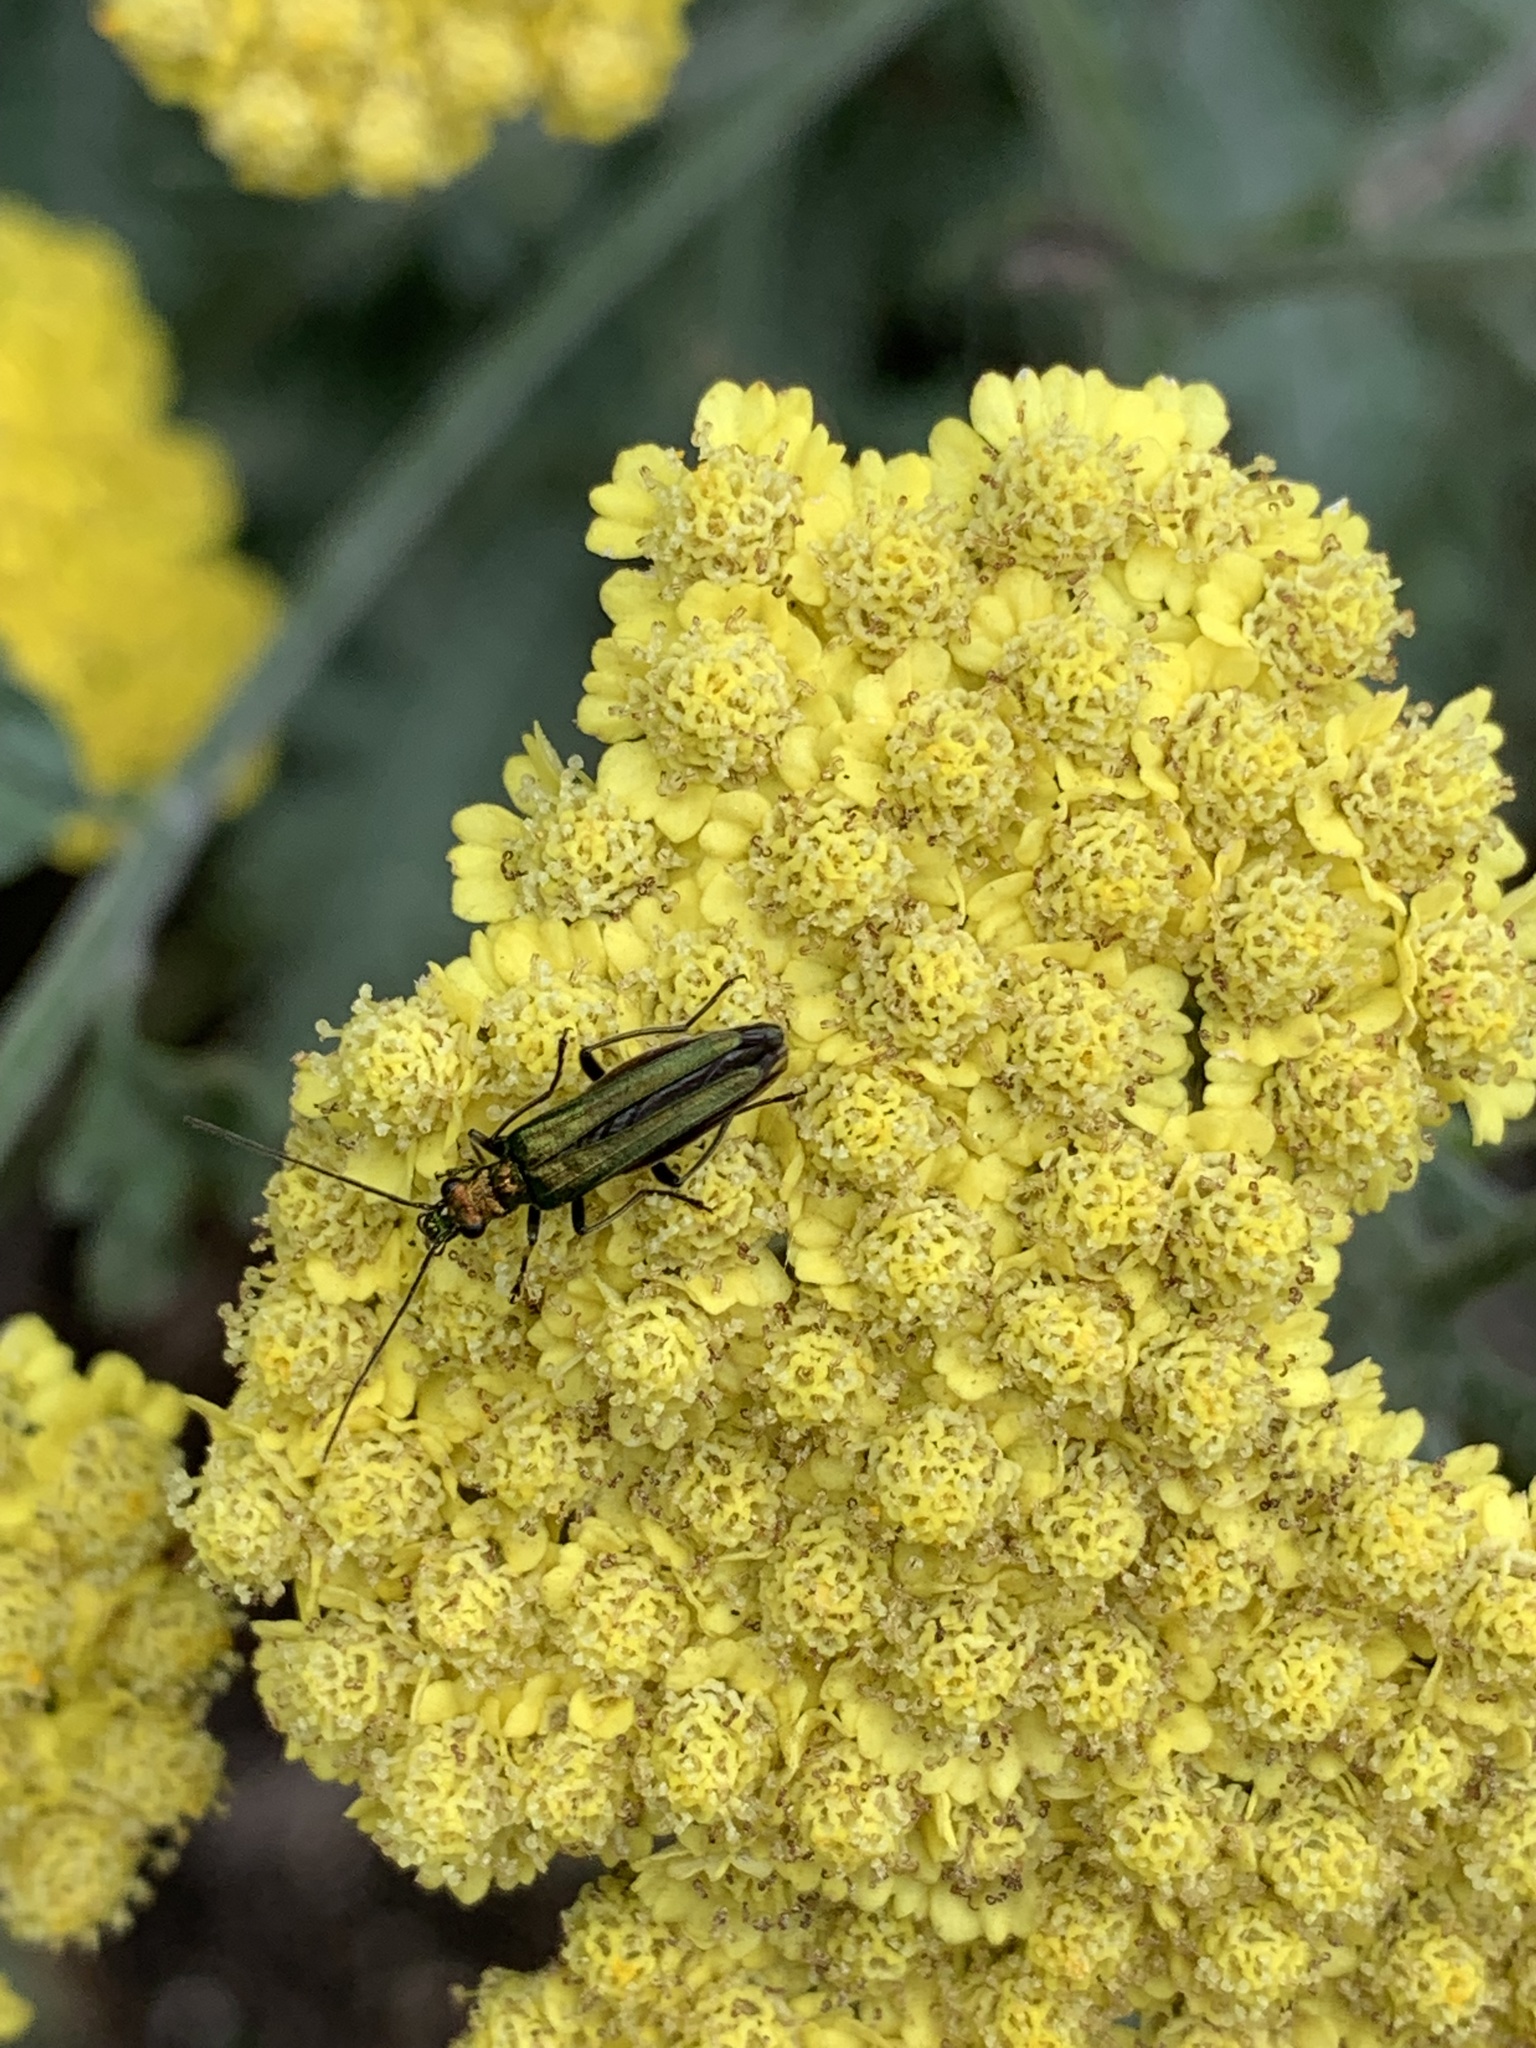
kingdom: Animalia
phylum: Arthropoda
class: Insecta
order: Coleoptera
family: Oedemeridae
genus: Oedemera
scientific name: Oedemera nobilis
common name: Swollen-thighed beetle
